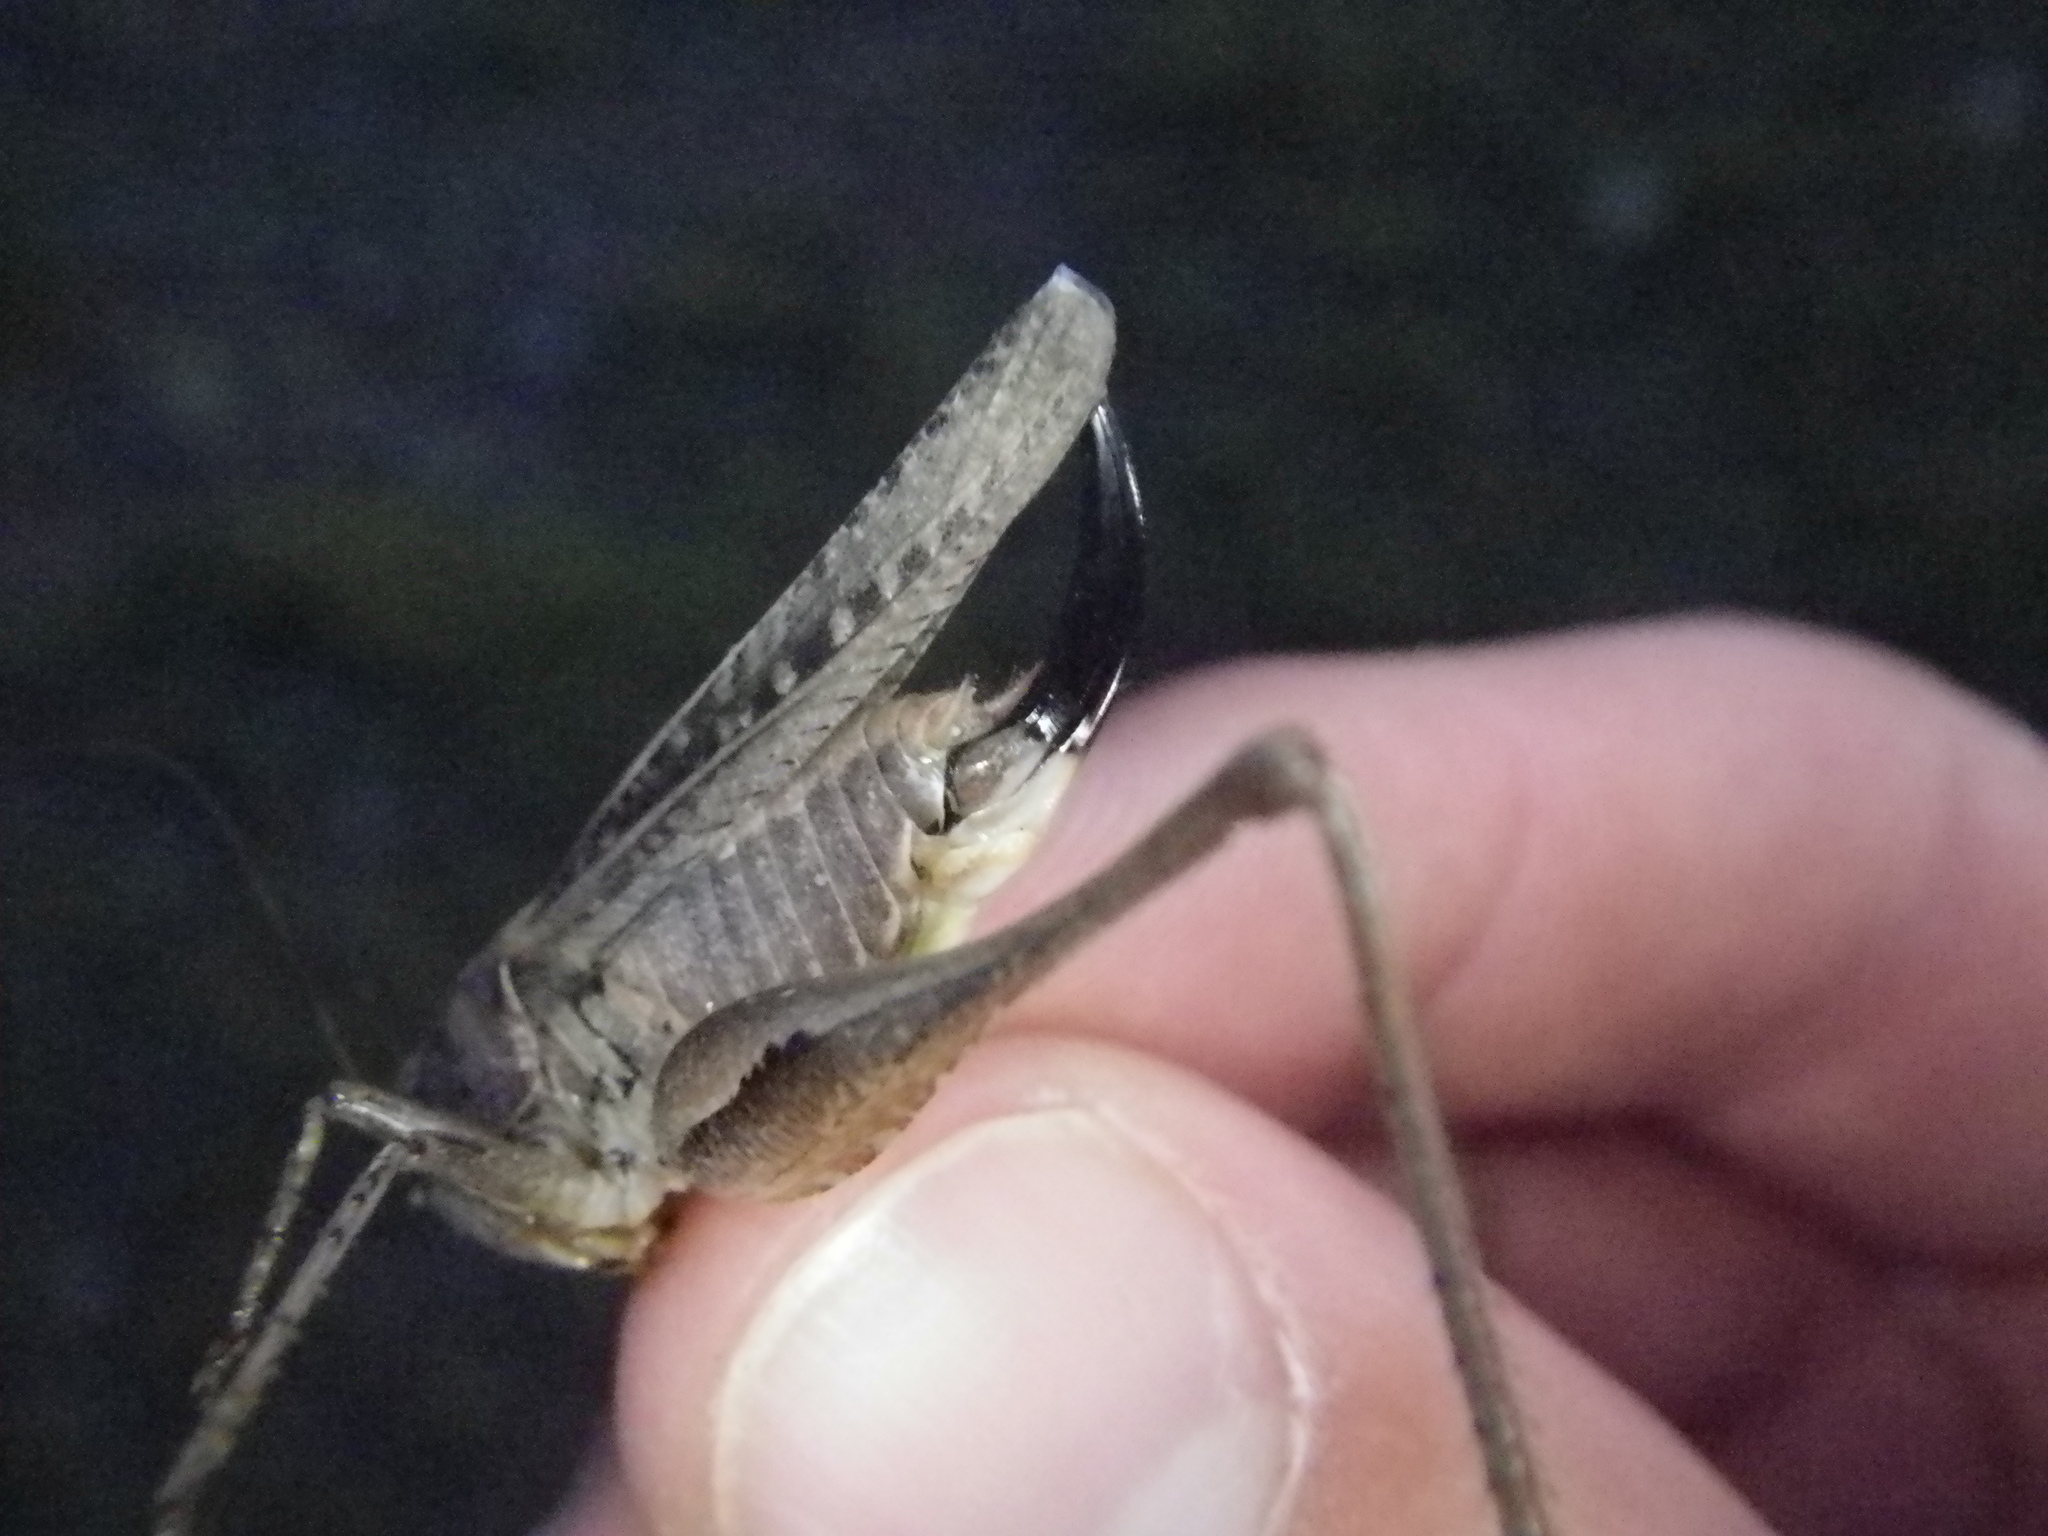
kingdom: Animalia
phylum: Arthropoda
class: Insecta
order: Orthoptera
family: Tettigoniidae
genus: Platycleis
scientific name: Platycleis albopunctata
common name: Grey bush-cricket
